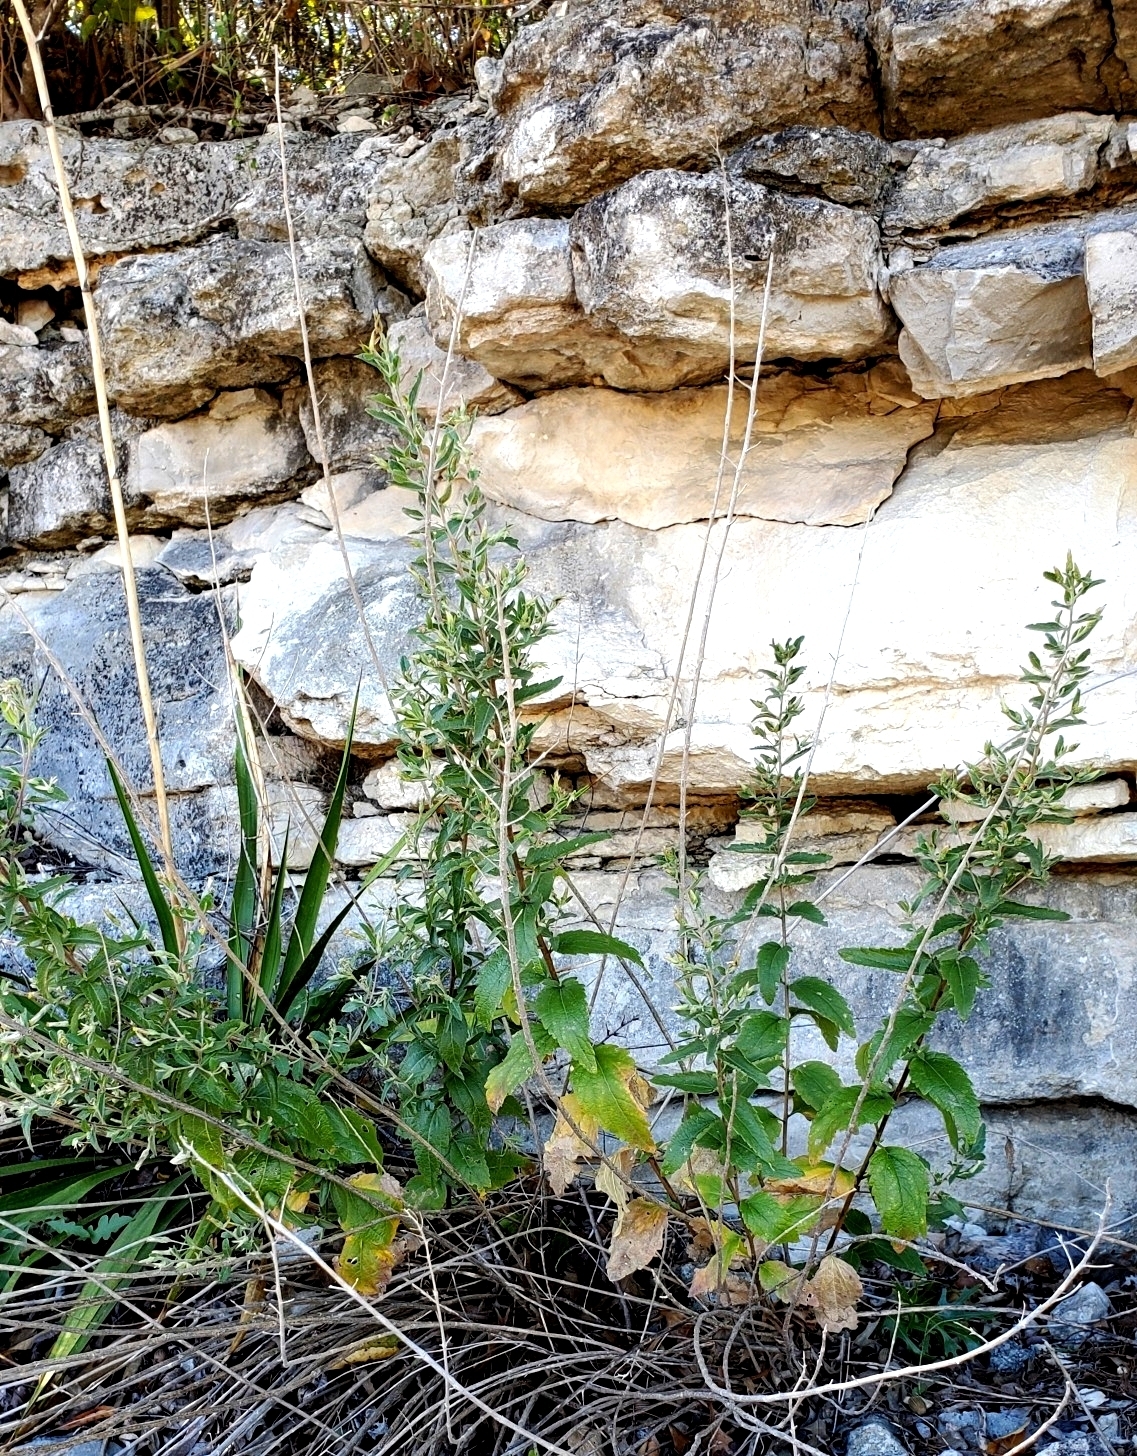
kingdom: Plantae
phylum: Tracheophyta
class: Magnoliopsida
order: Asterales
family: Asteraceae
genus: Brickellia
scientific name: Brickellia cylindracea
